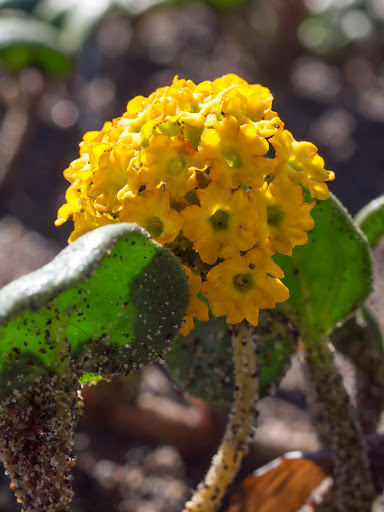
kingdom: Plantae
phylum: Tracheophyta
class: Magnoliopsida
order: Caryophyllales
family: Nyctaginaceae
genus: Abronia
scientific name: Abronia latifolia
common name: Yellow sand-verbena
